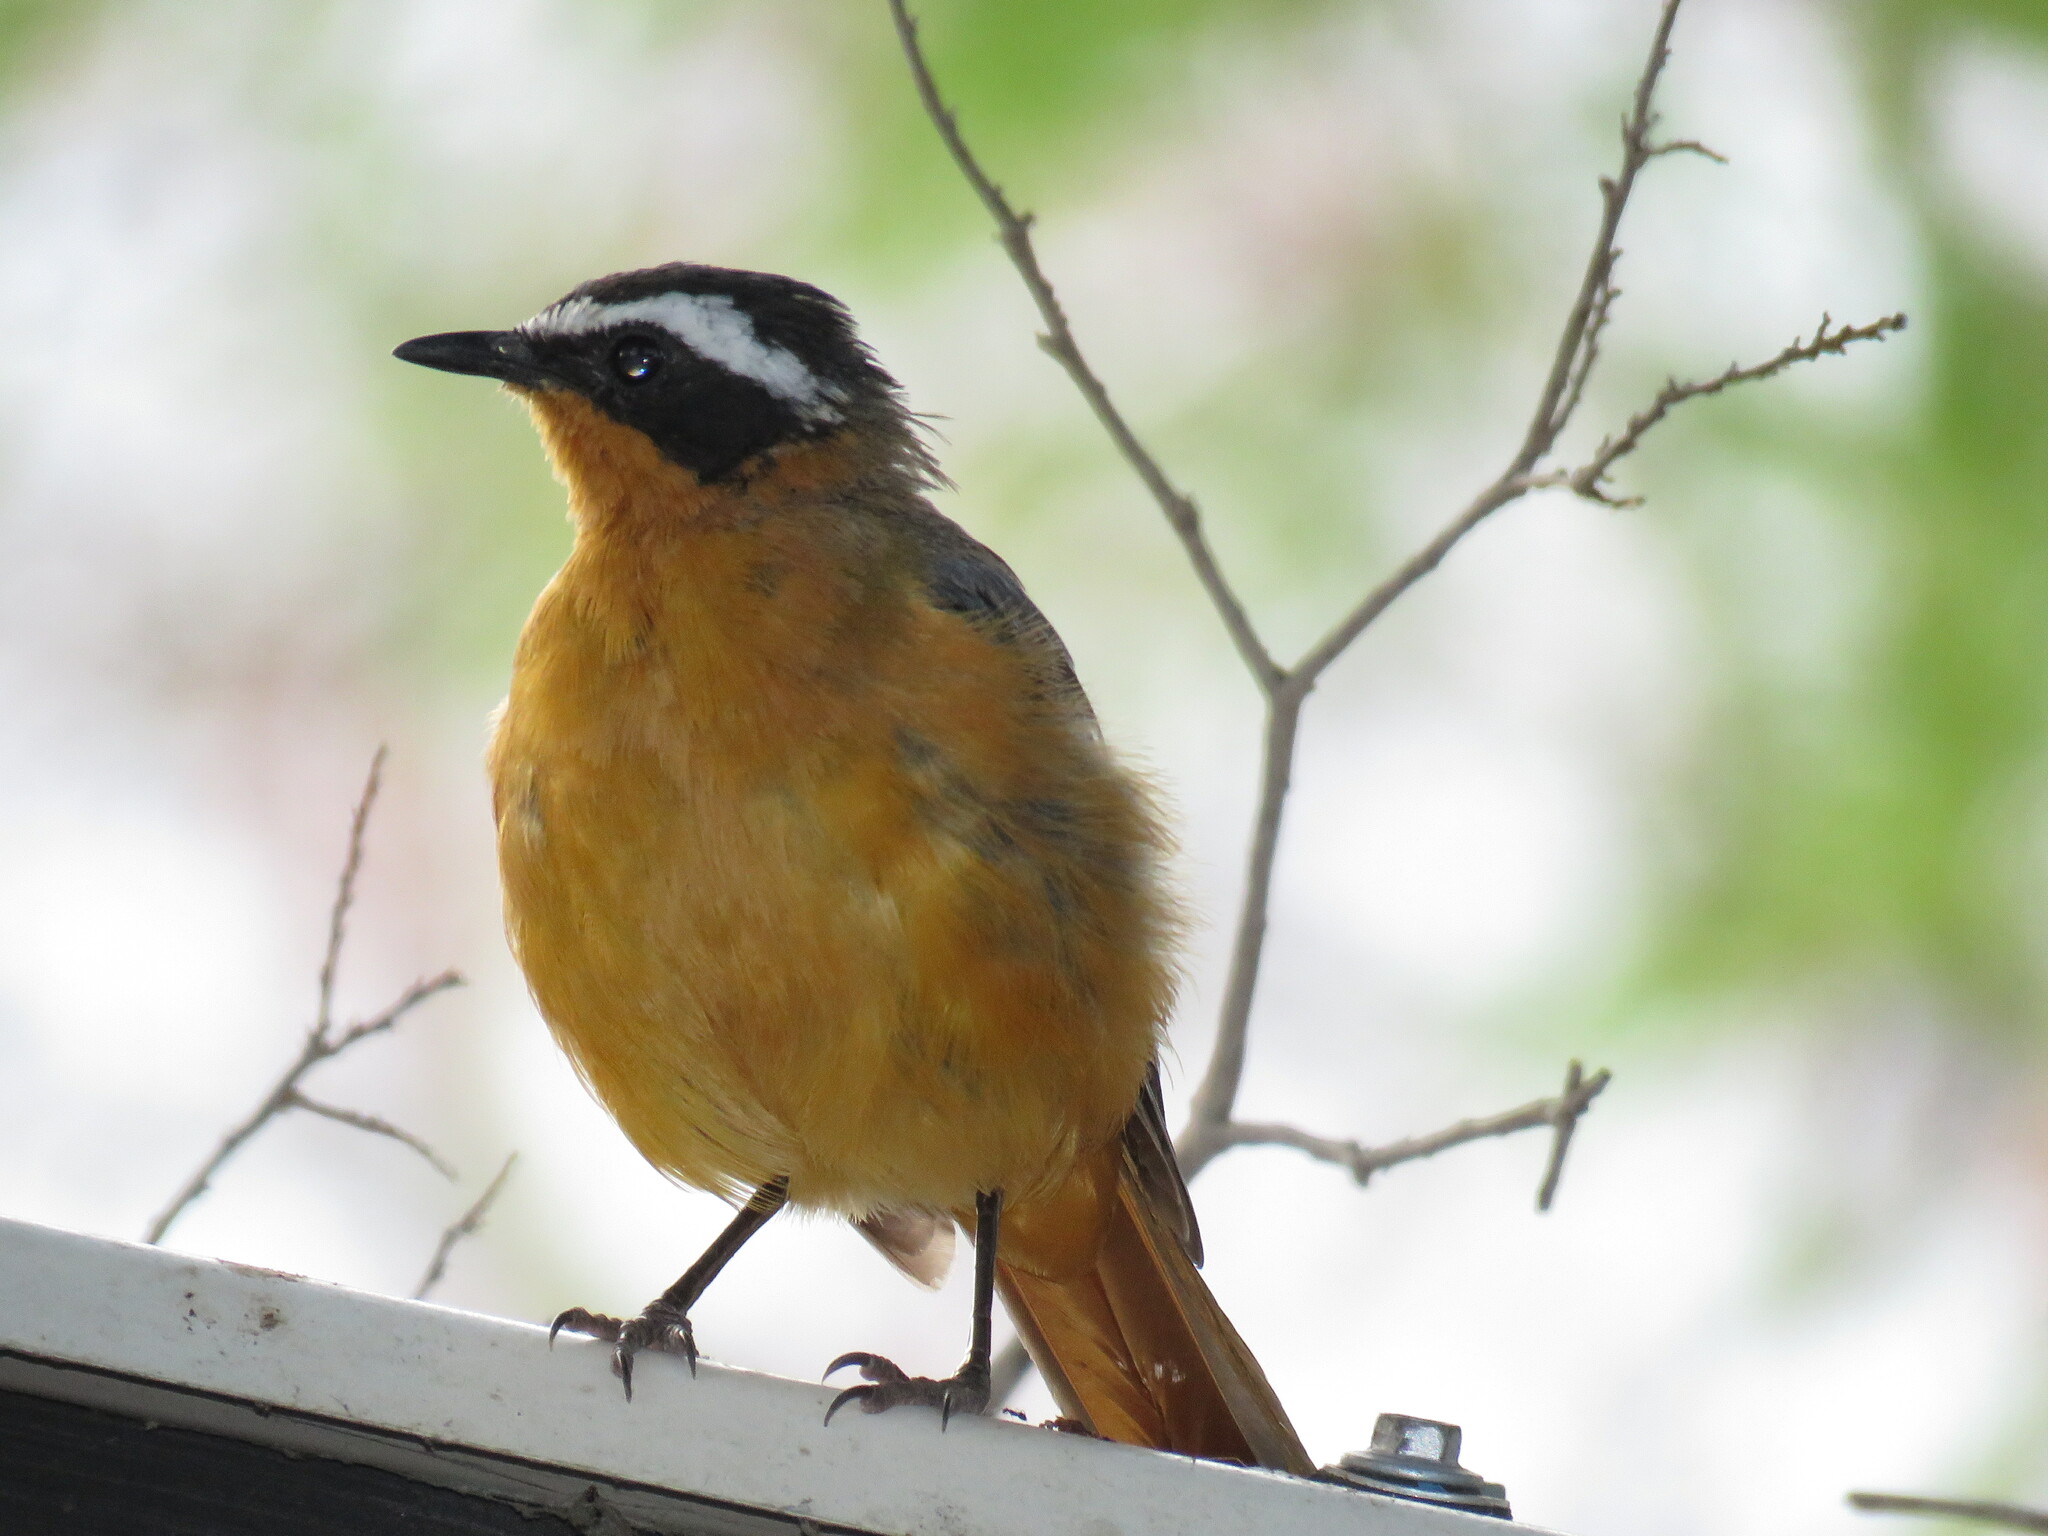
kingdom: Animalia
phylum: Chordata
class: Aves
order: Passeriformes
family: Muscicapidae
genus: Cossypha
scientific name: Cossypha heuglini
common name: White-browed robin-chat
